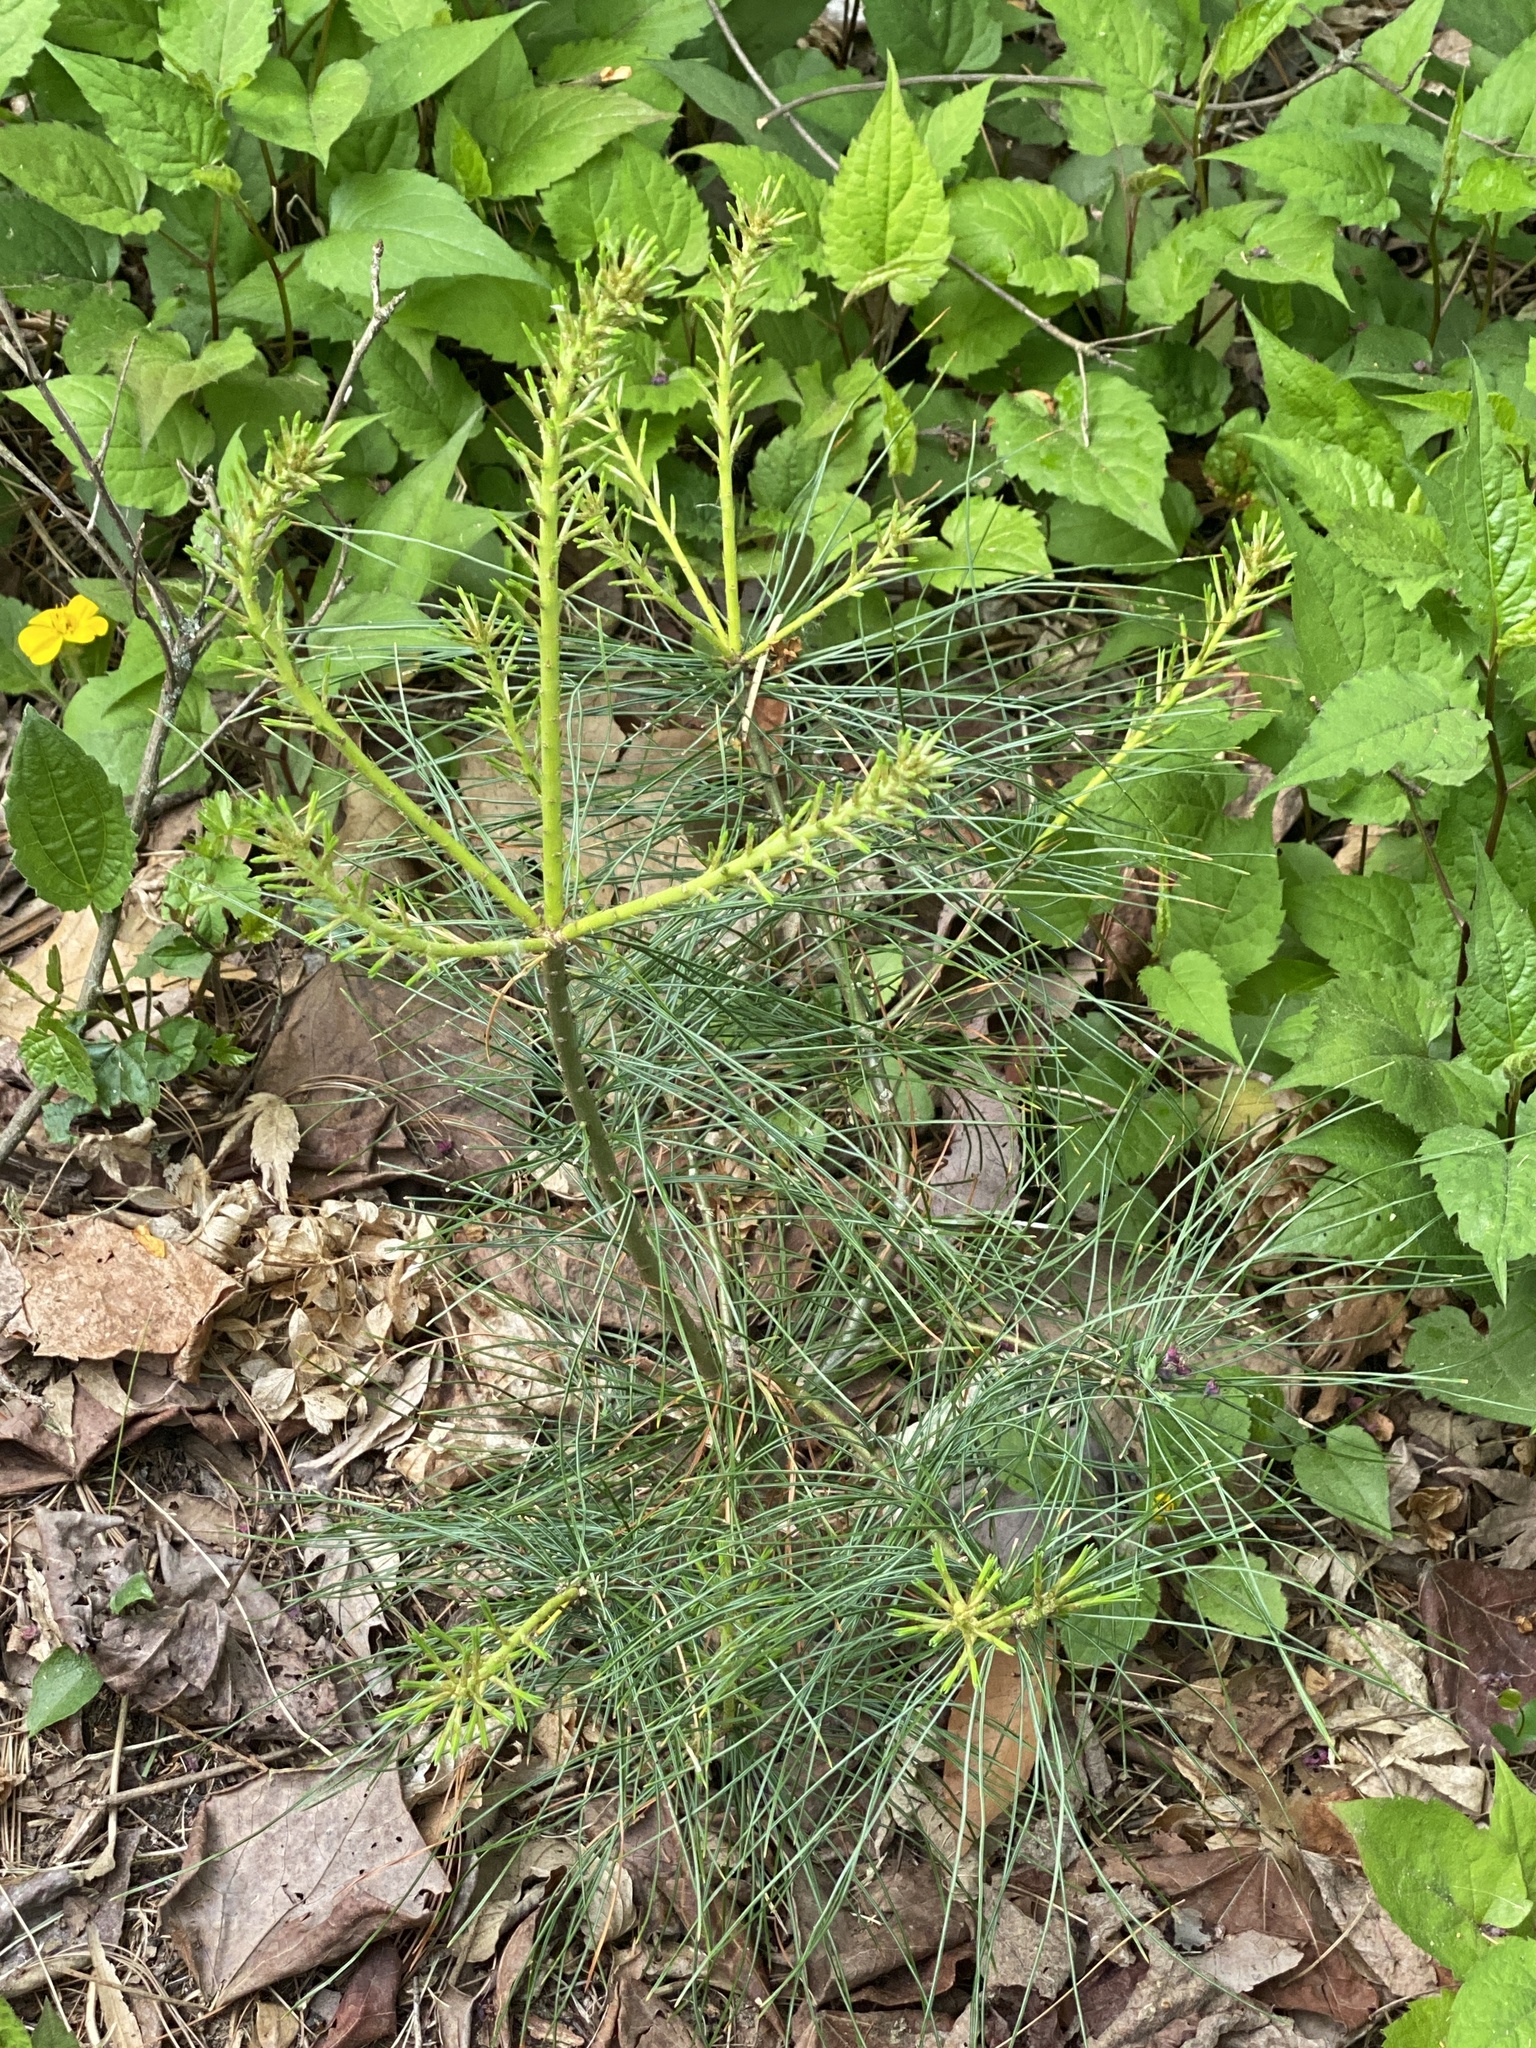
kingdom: Plantae
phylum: Tracheophyta
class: Pinopsida
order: Pinales
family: Pinaceae
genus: Pinus
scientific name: Pinus strobus
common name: Weymouth pine
